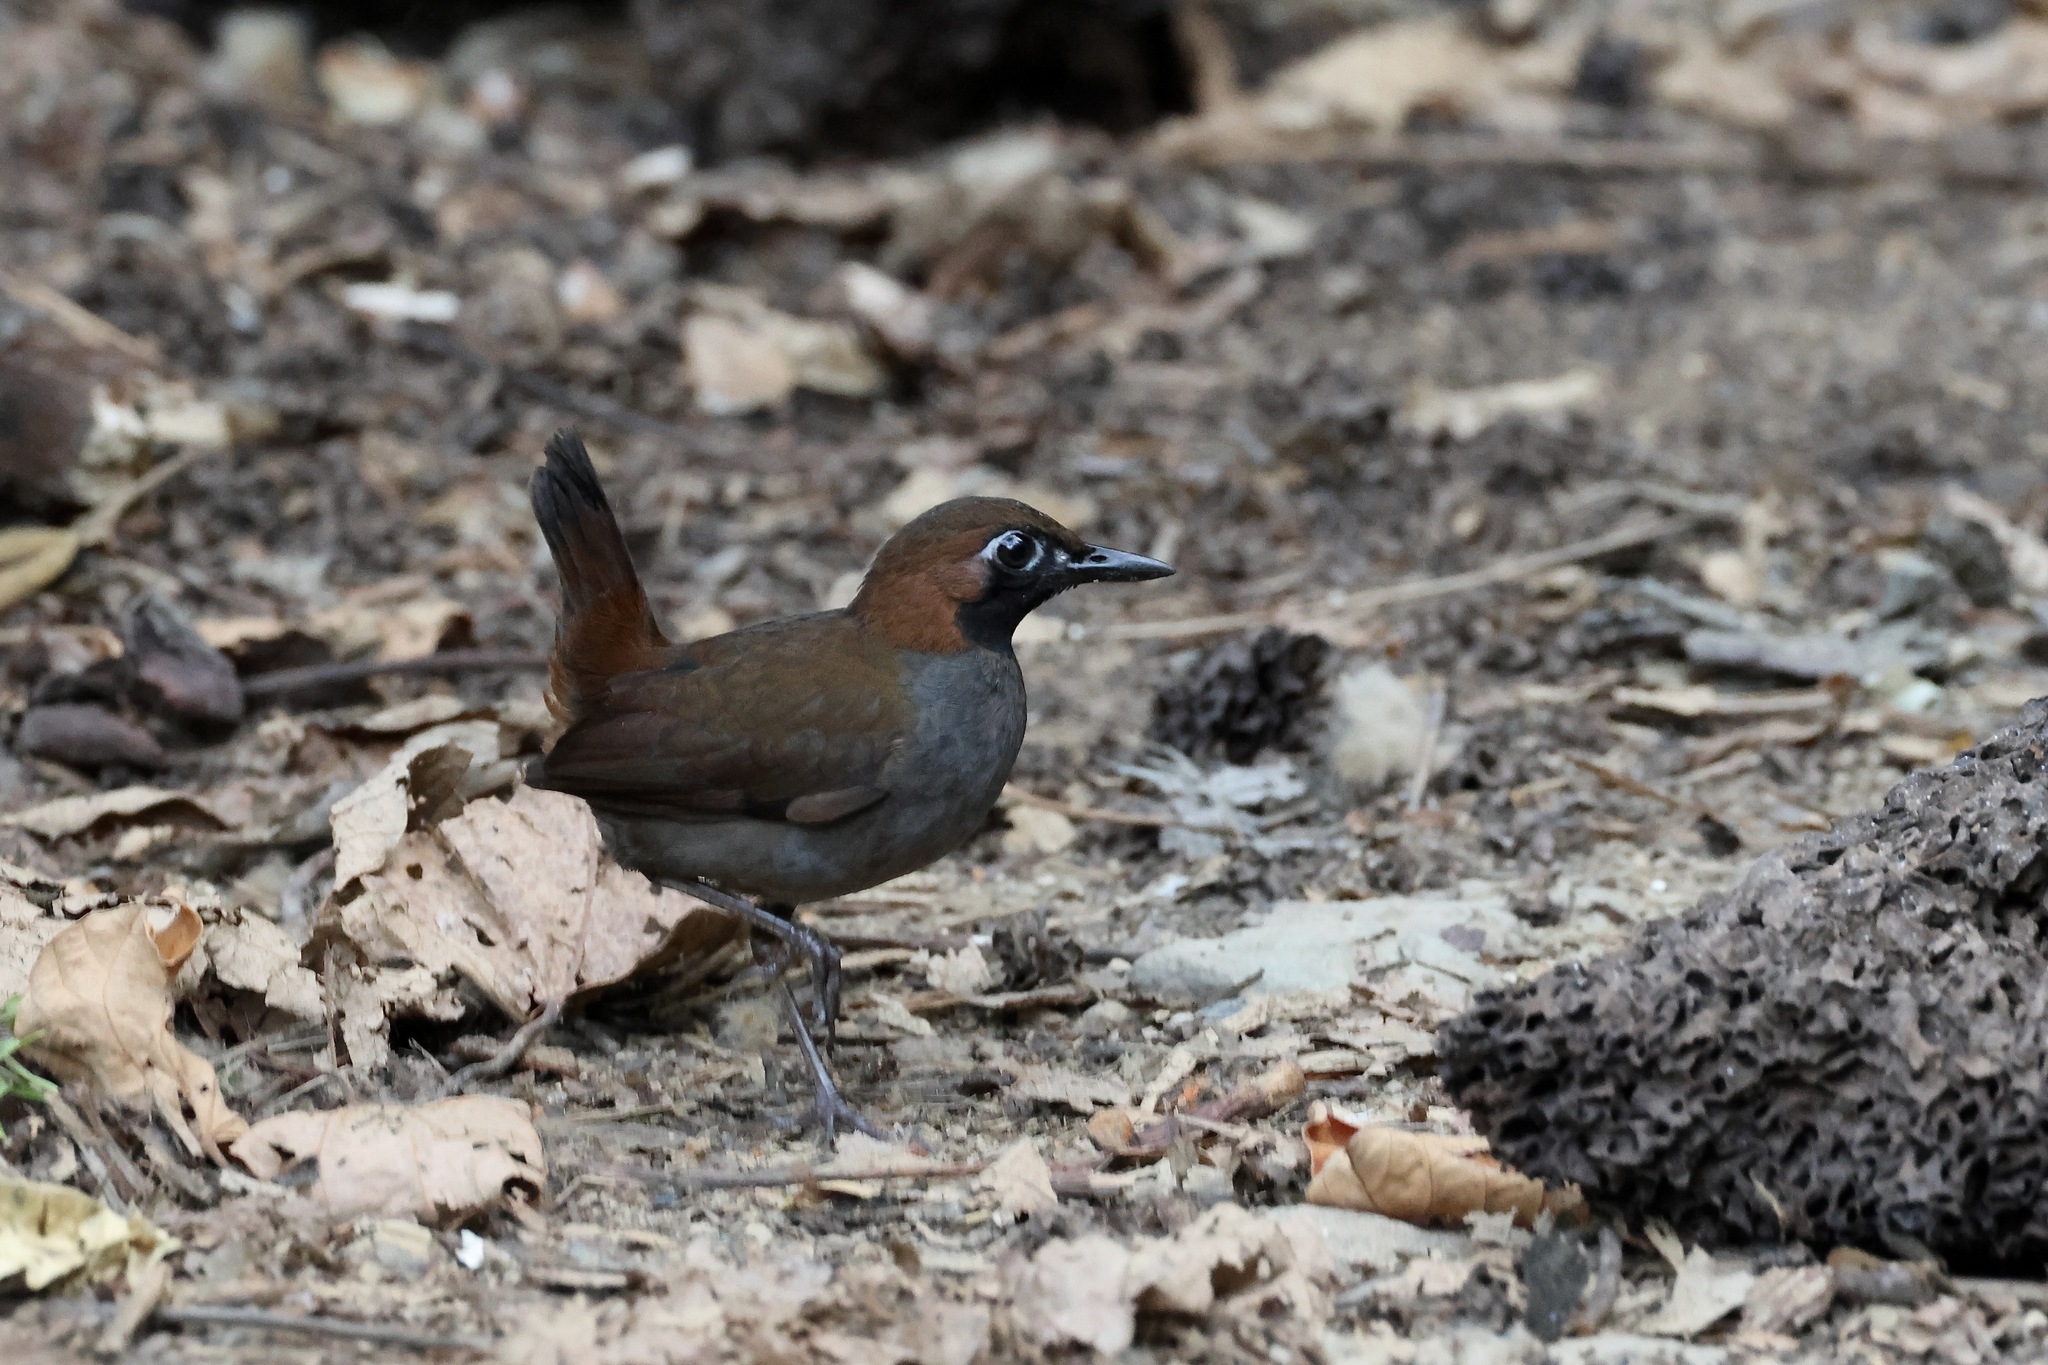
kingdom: Animalia
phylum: Chordata
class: Aves
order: Passeriformes
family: Formicariidae
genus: Formicarius
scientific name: Formicarius analis
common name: Black-faced antthrush
